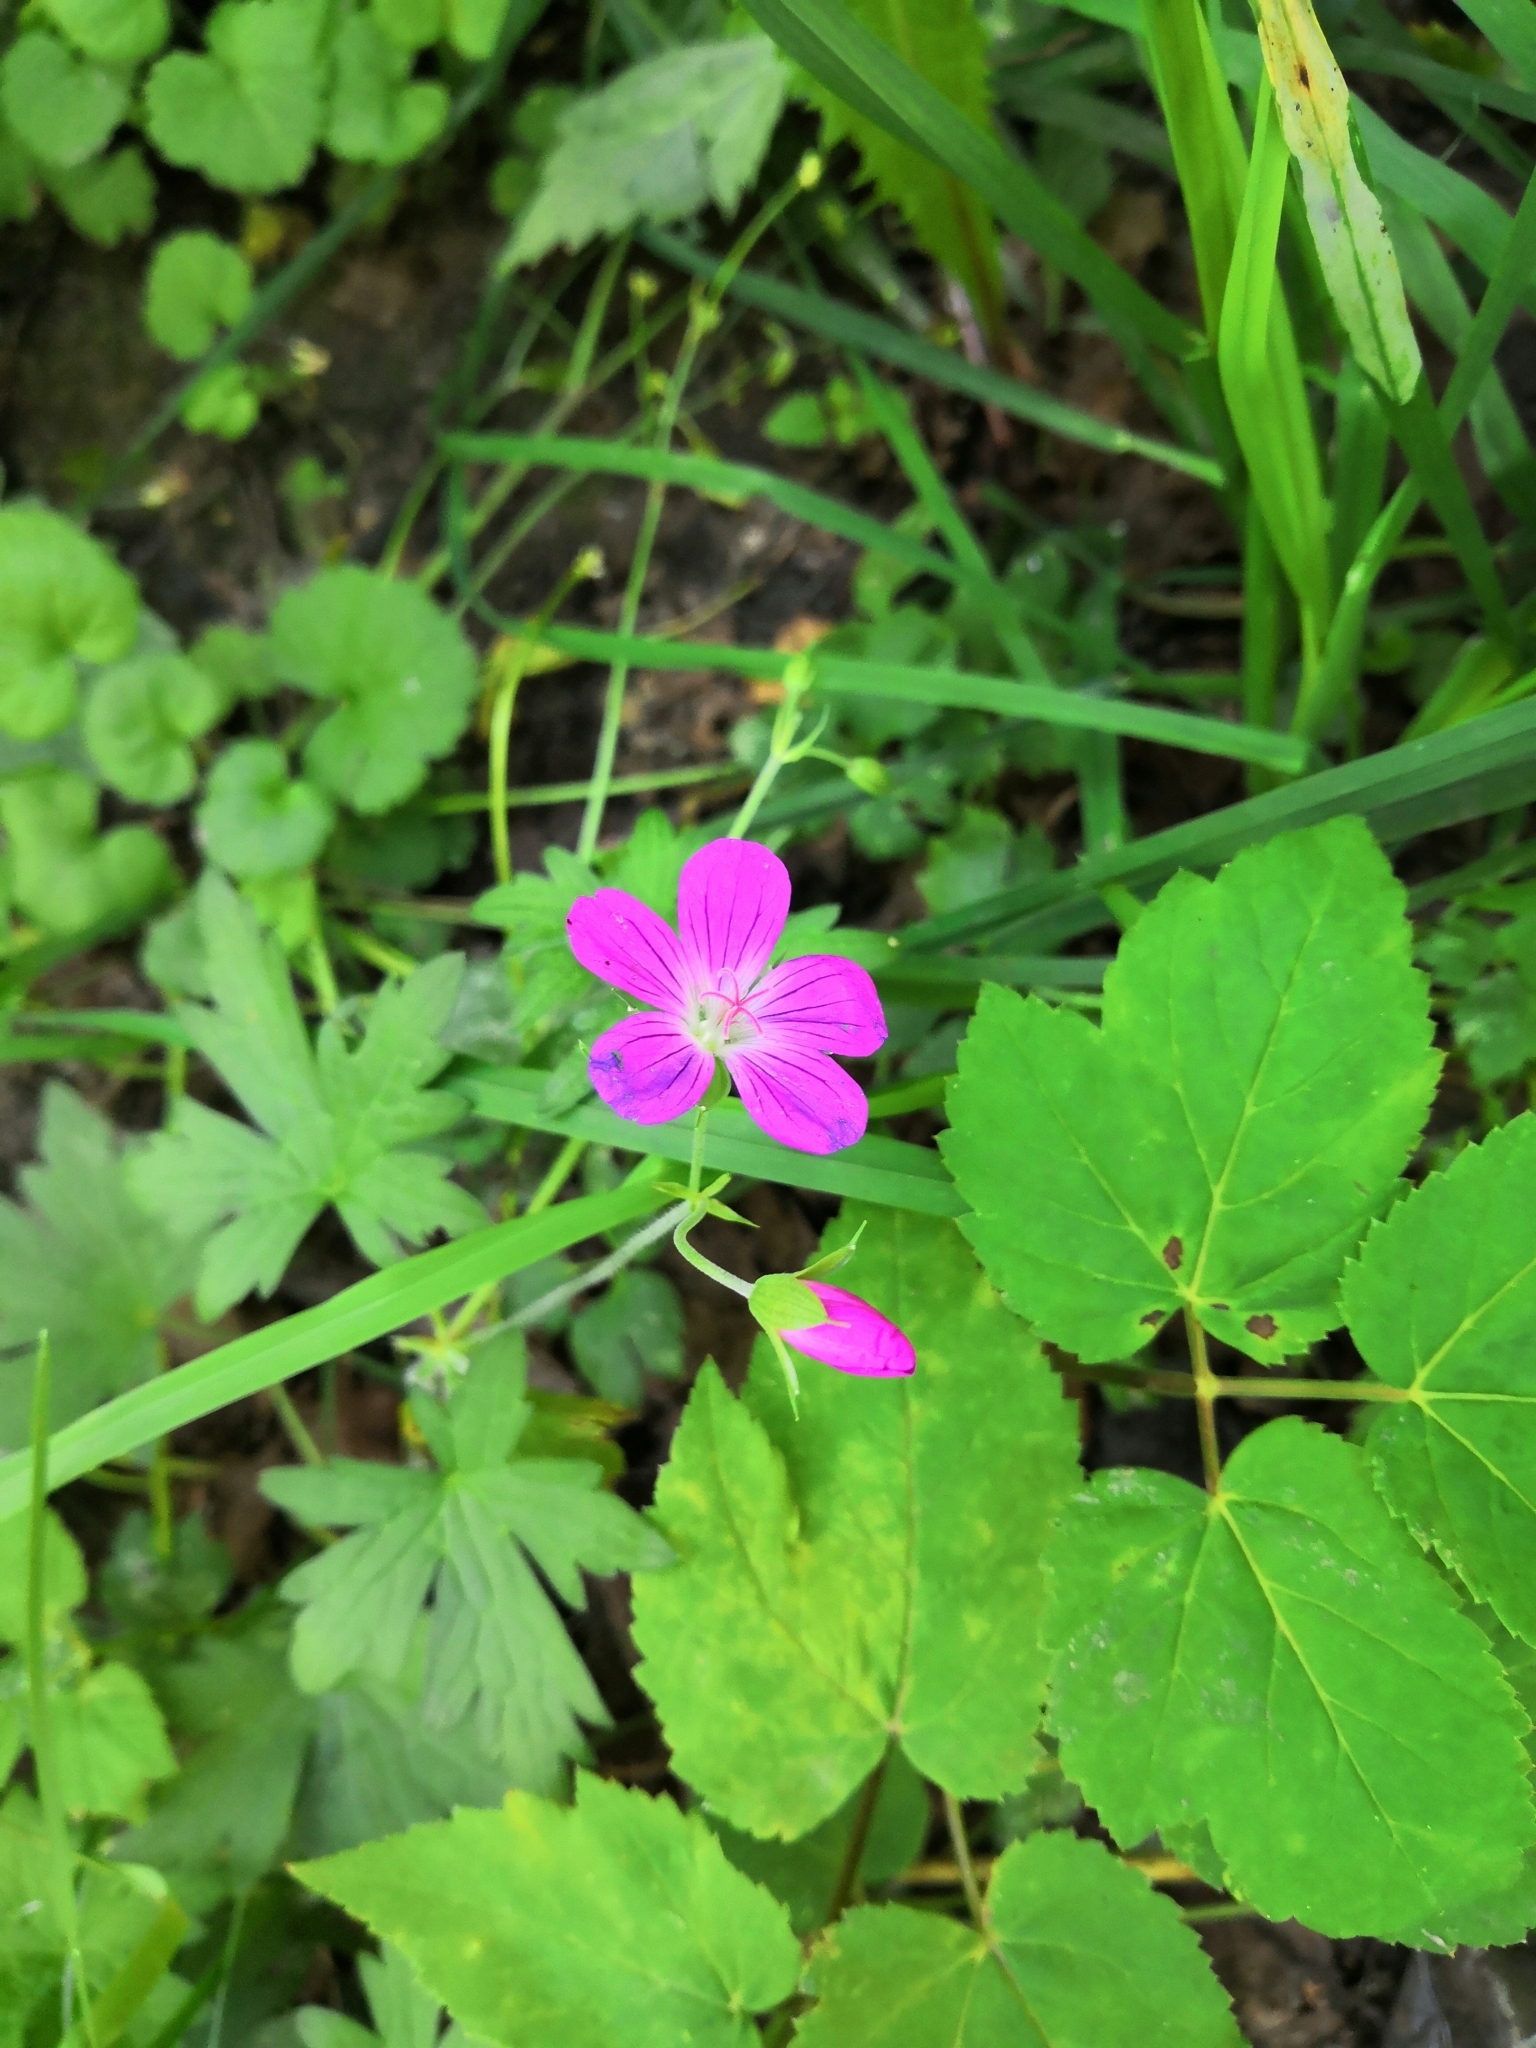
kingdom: Plantae
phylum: Tracheophyta
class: Magnoliopsida
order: Geraniales
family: Geraniaceae
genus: Geranium
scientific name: Geranium palustre
